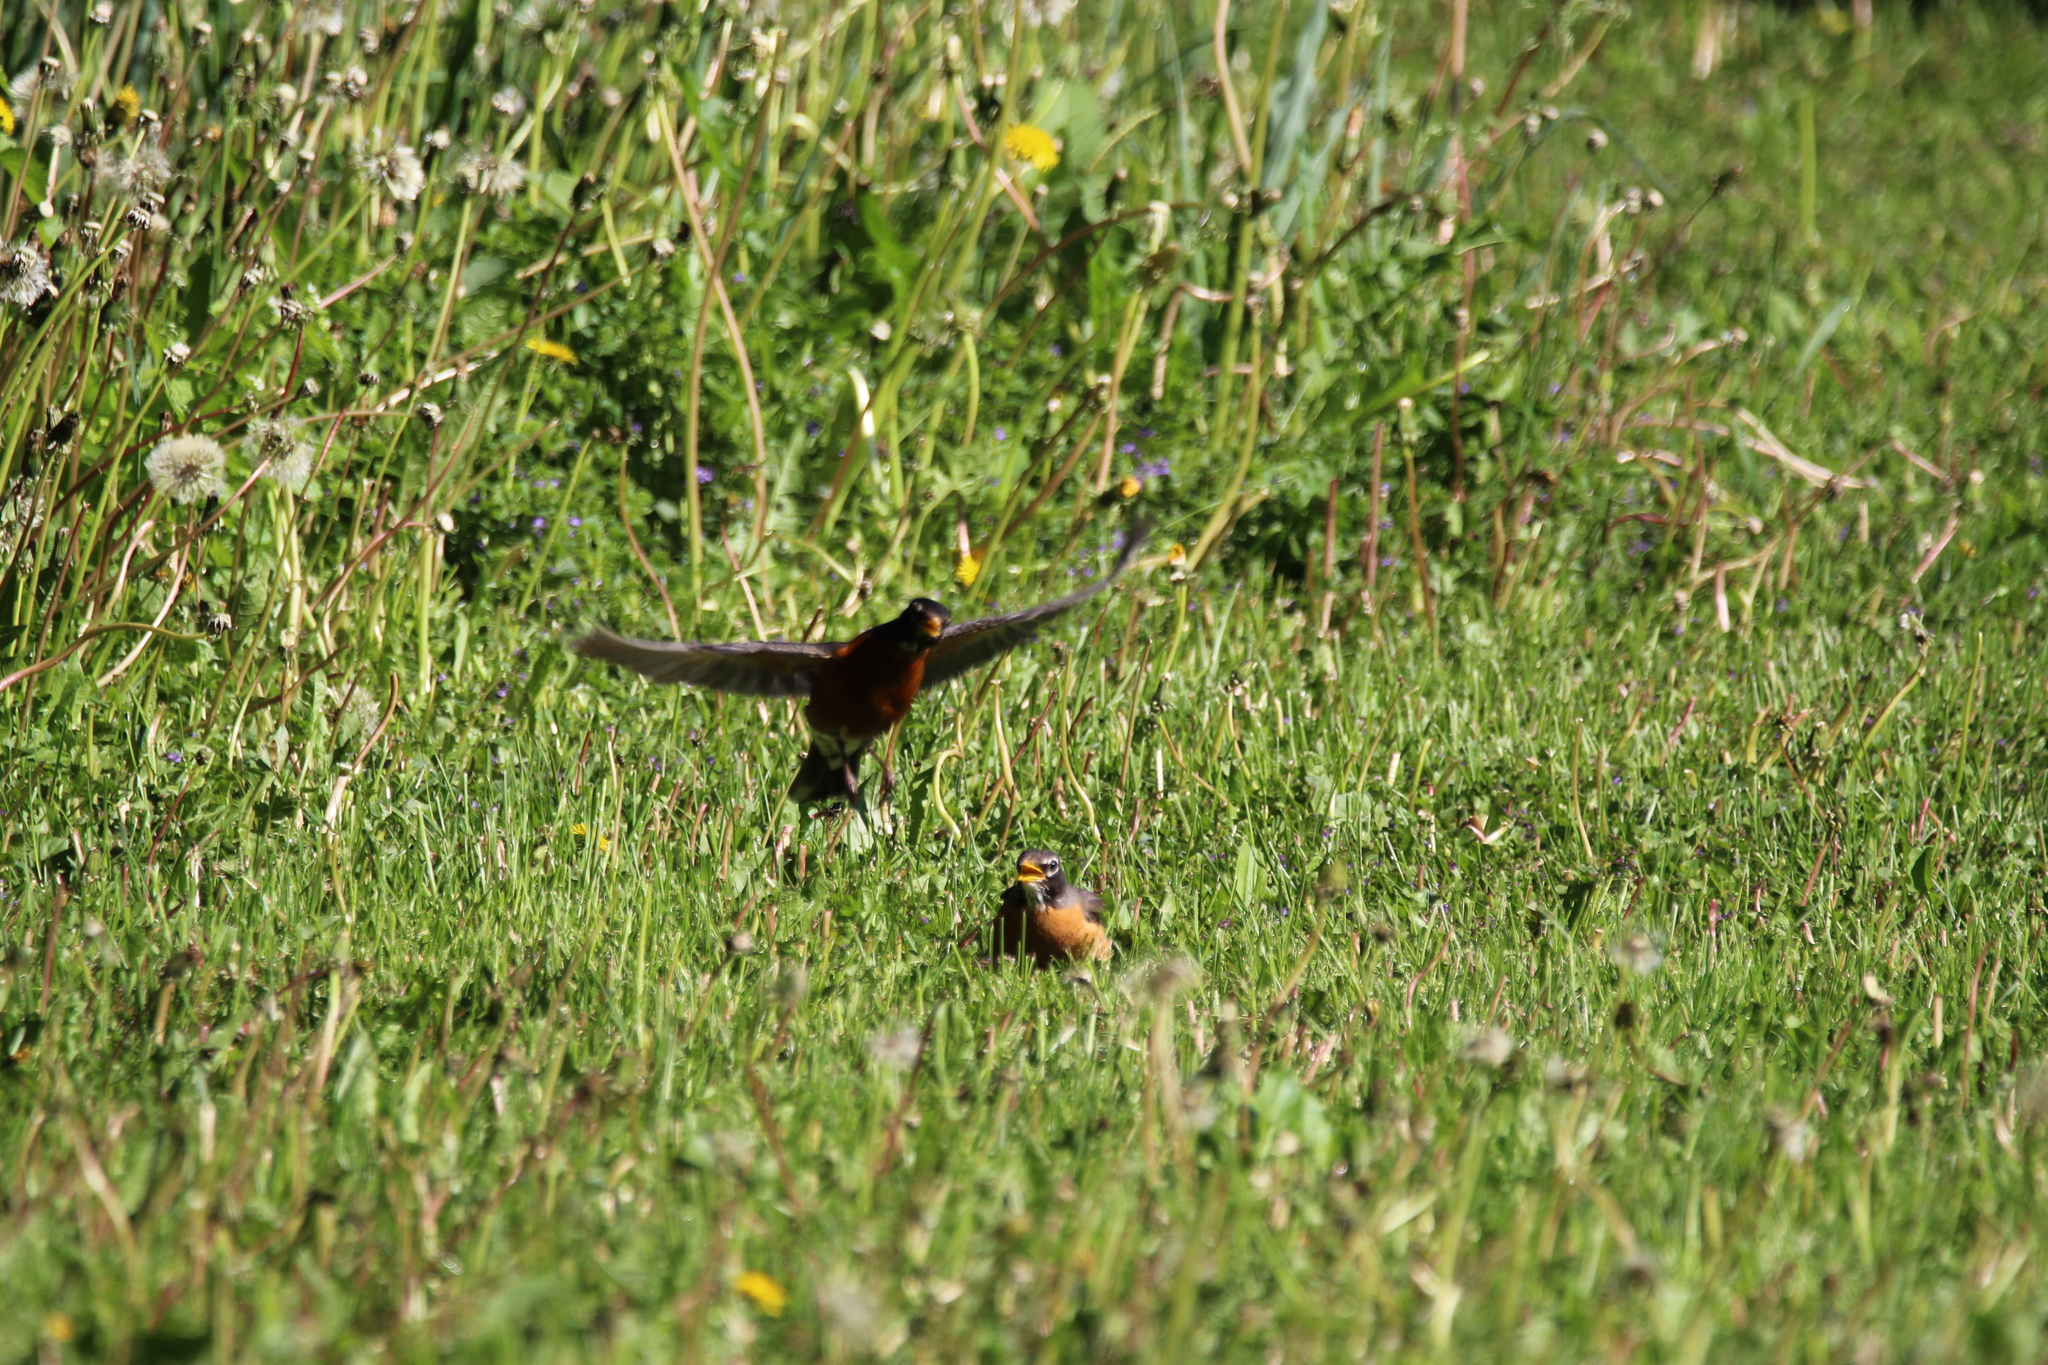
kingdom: Animalia
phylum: Chordata
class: Aves
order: Passeriformes
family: Turdidae
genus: Turdus
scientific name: Turdus migratorius
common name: American robin
